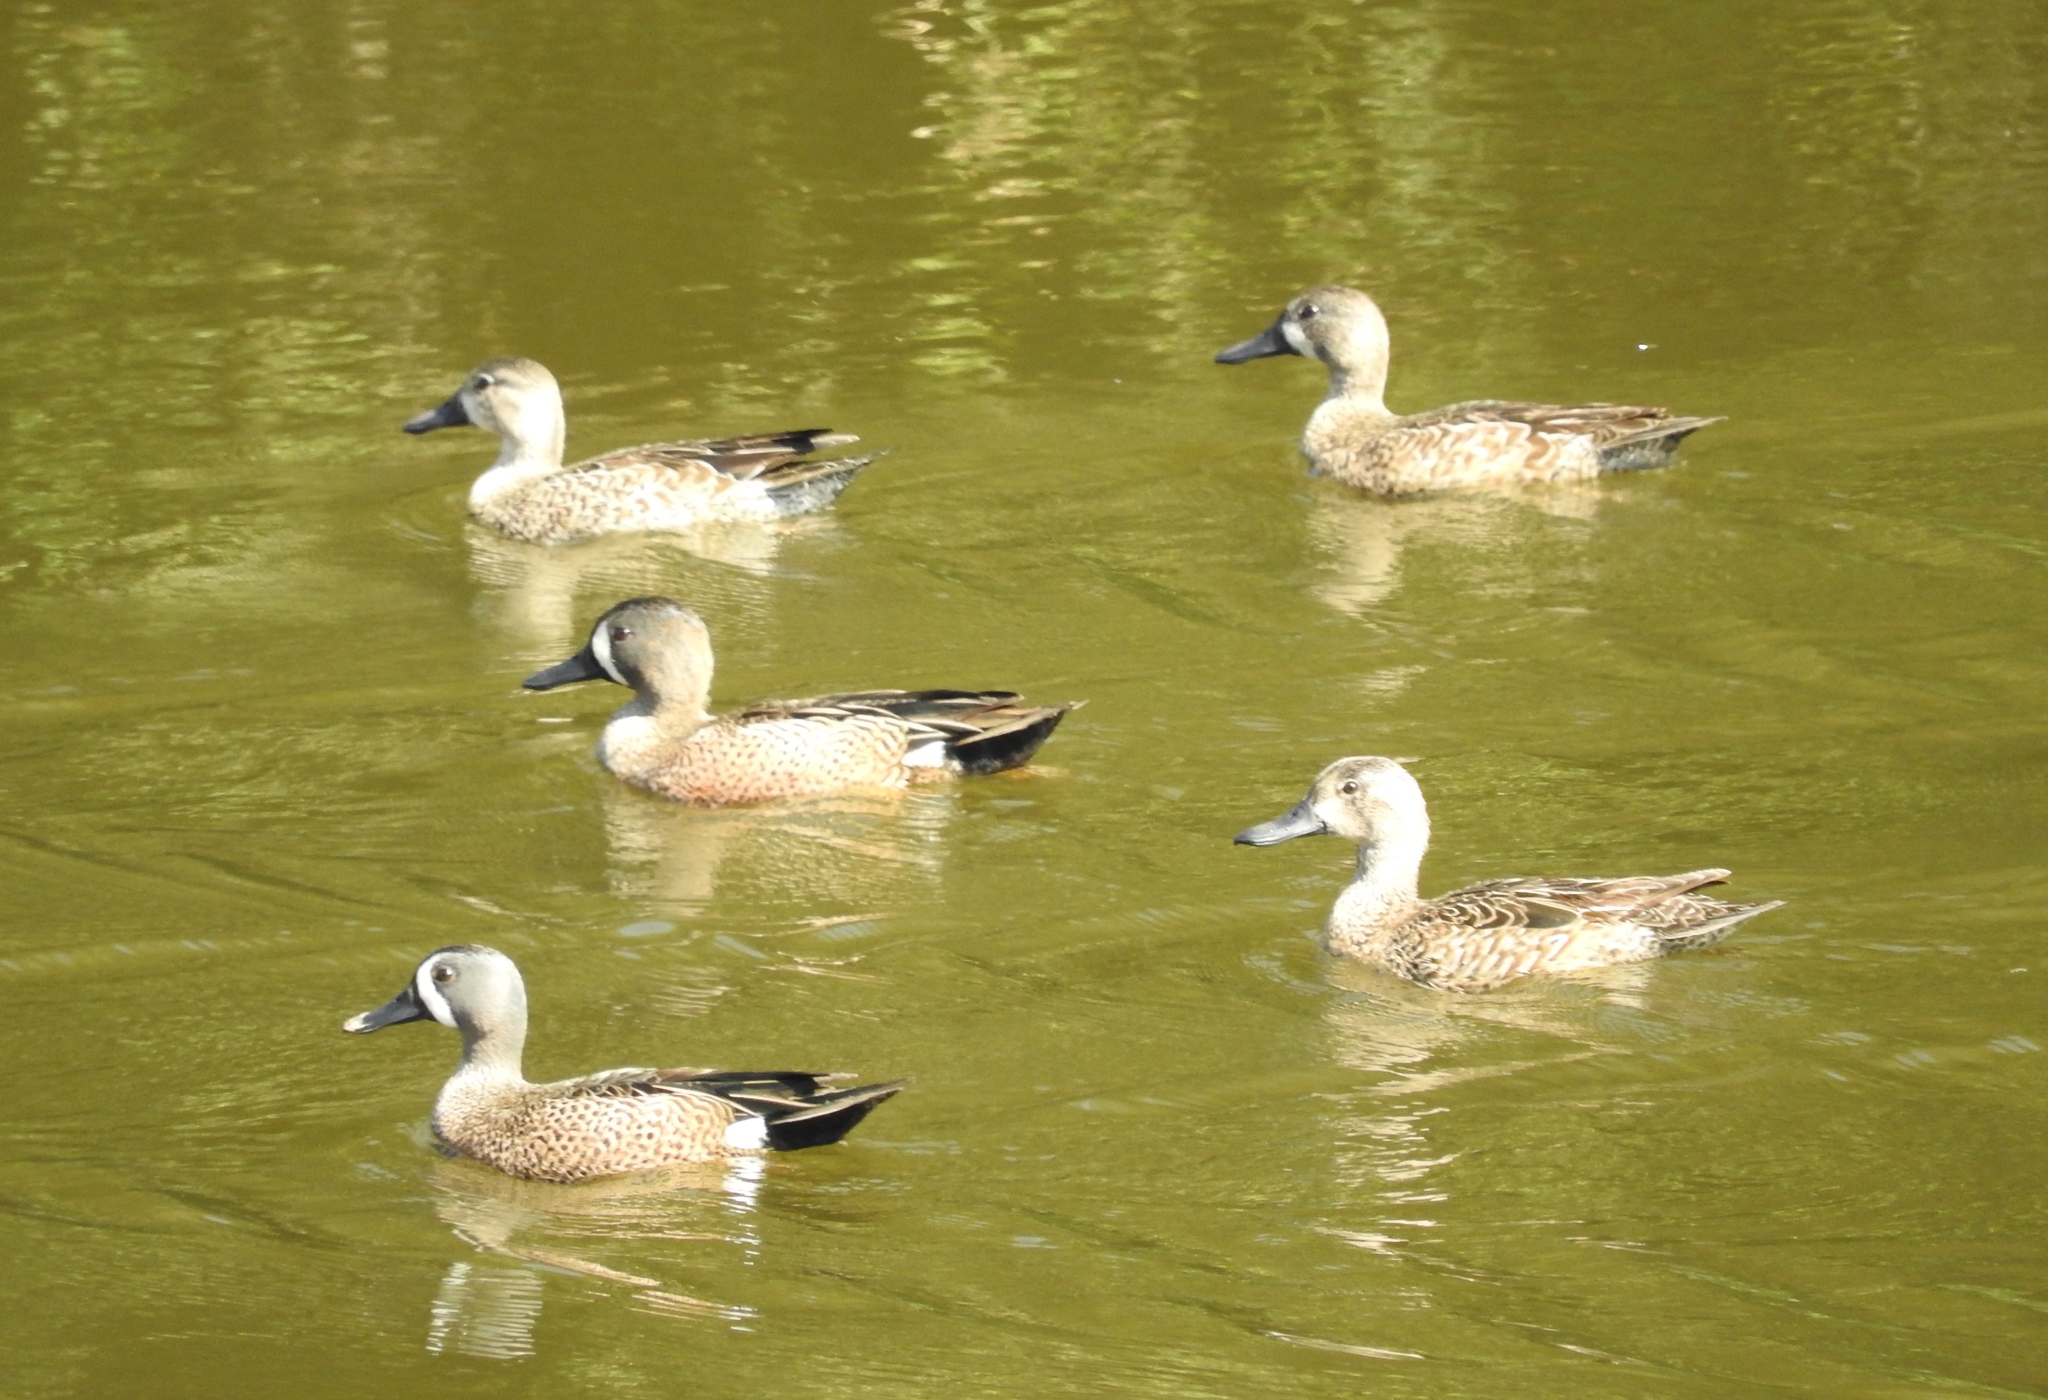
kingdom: Animalia
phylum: Chordata
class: Aves
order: Anseriformes
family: Anatidae
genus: Spatula
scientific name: Spatula discors
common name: Blue-winged teal
